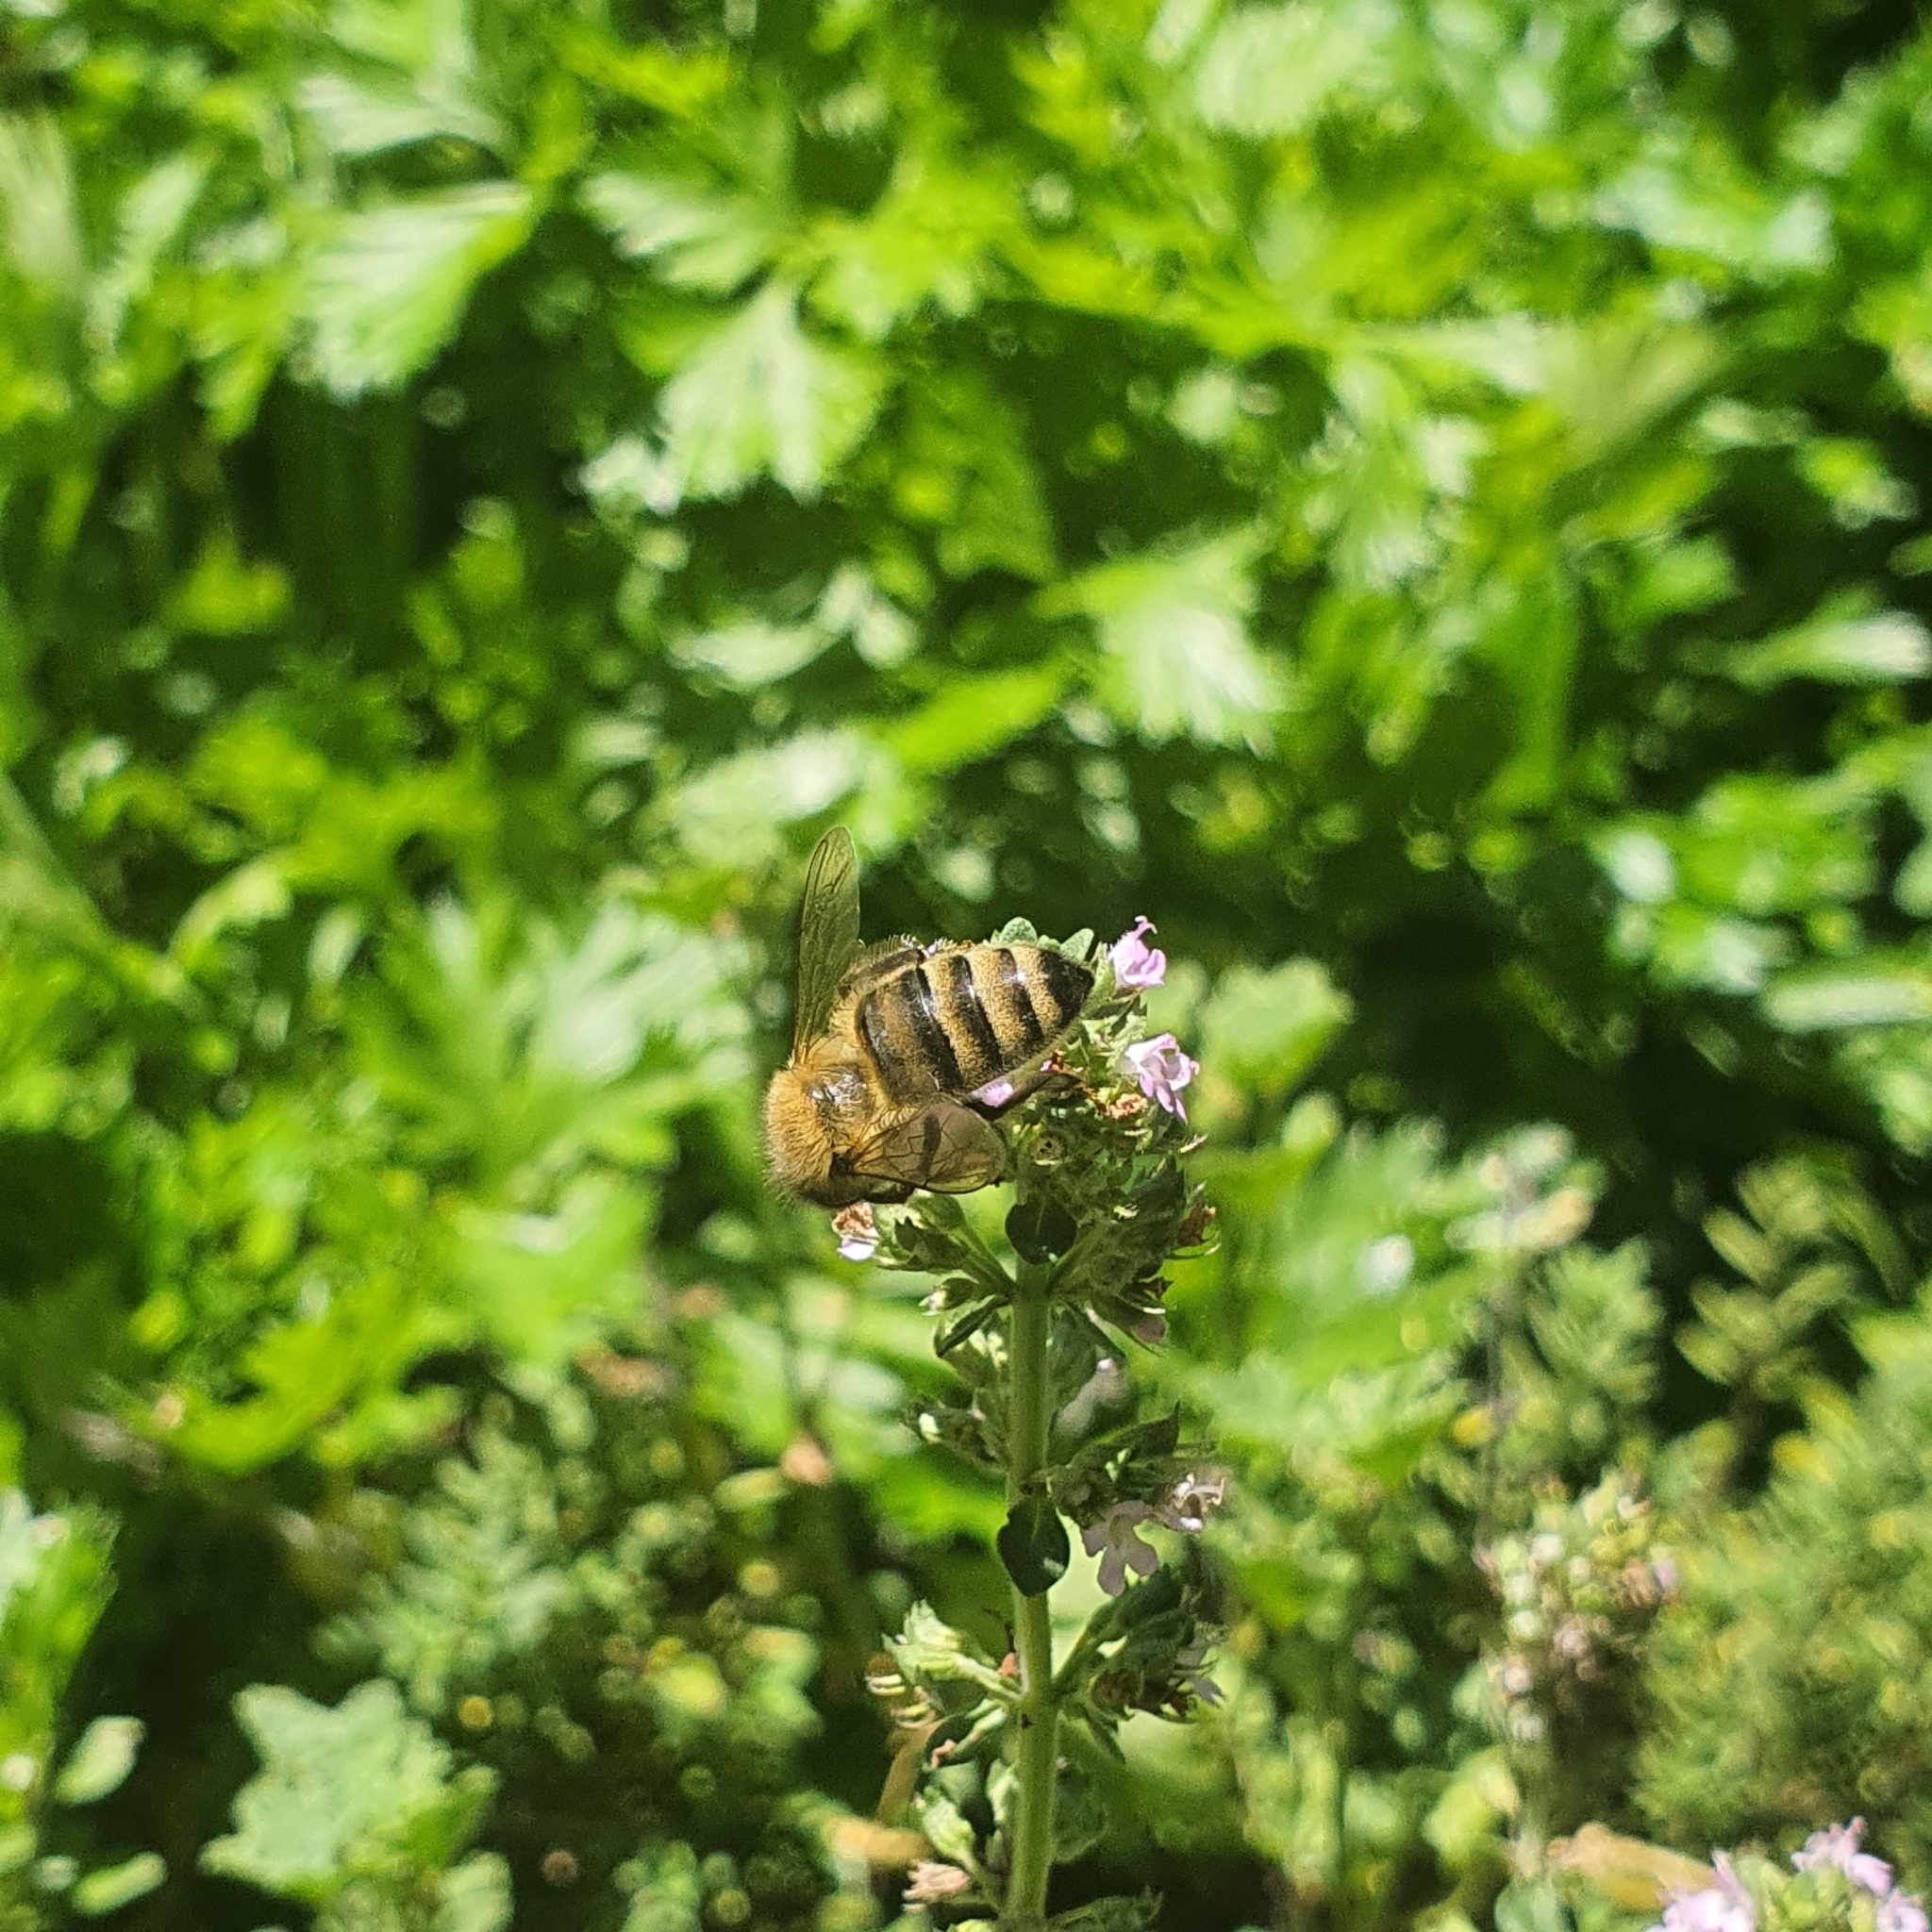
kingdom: Animalia
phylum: Arthropoda
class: Insecta
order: Hymenoptera
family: Apidae
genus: Apis
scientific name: Apis mellifera
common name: Honey bee
